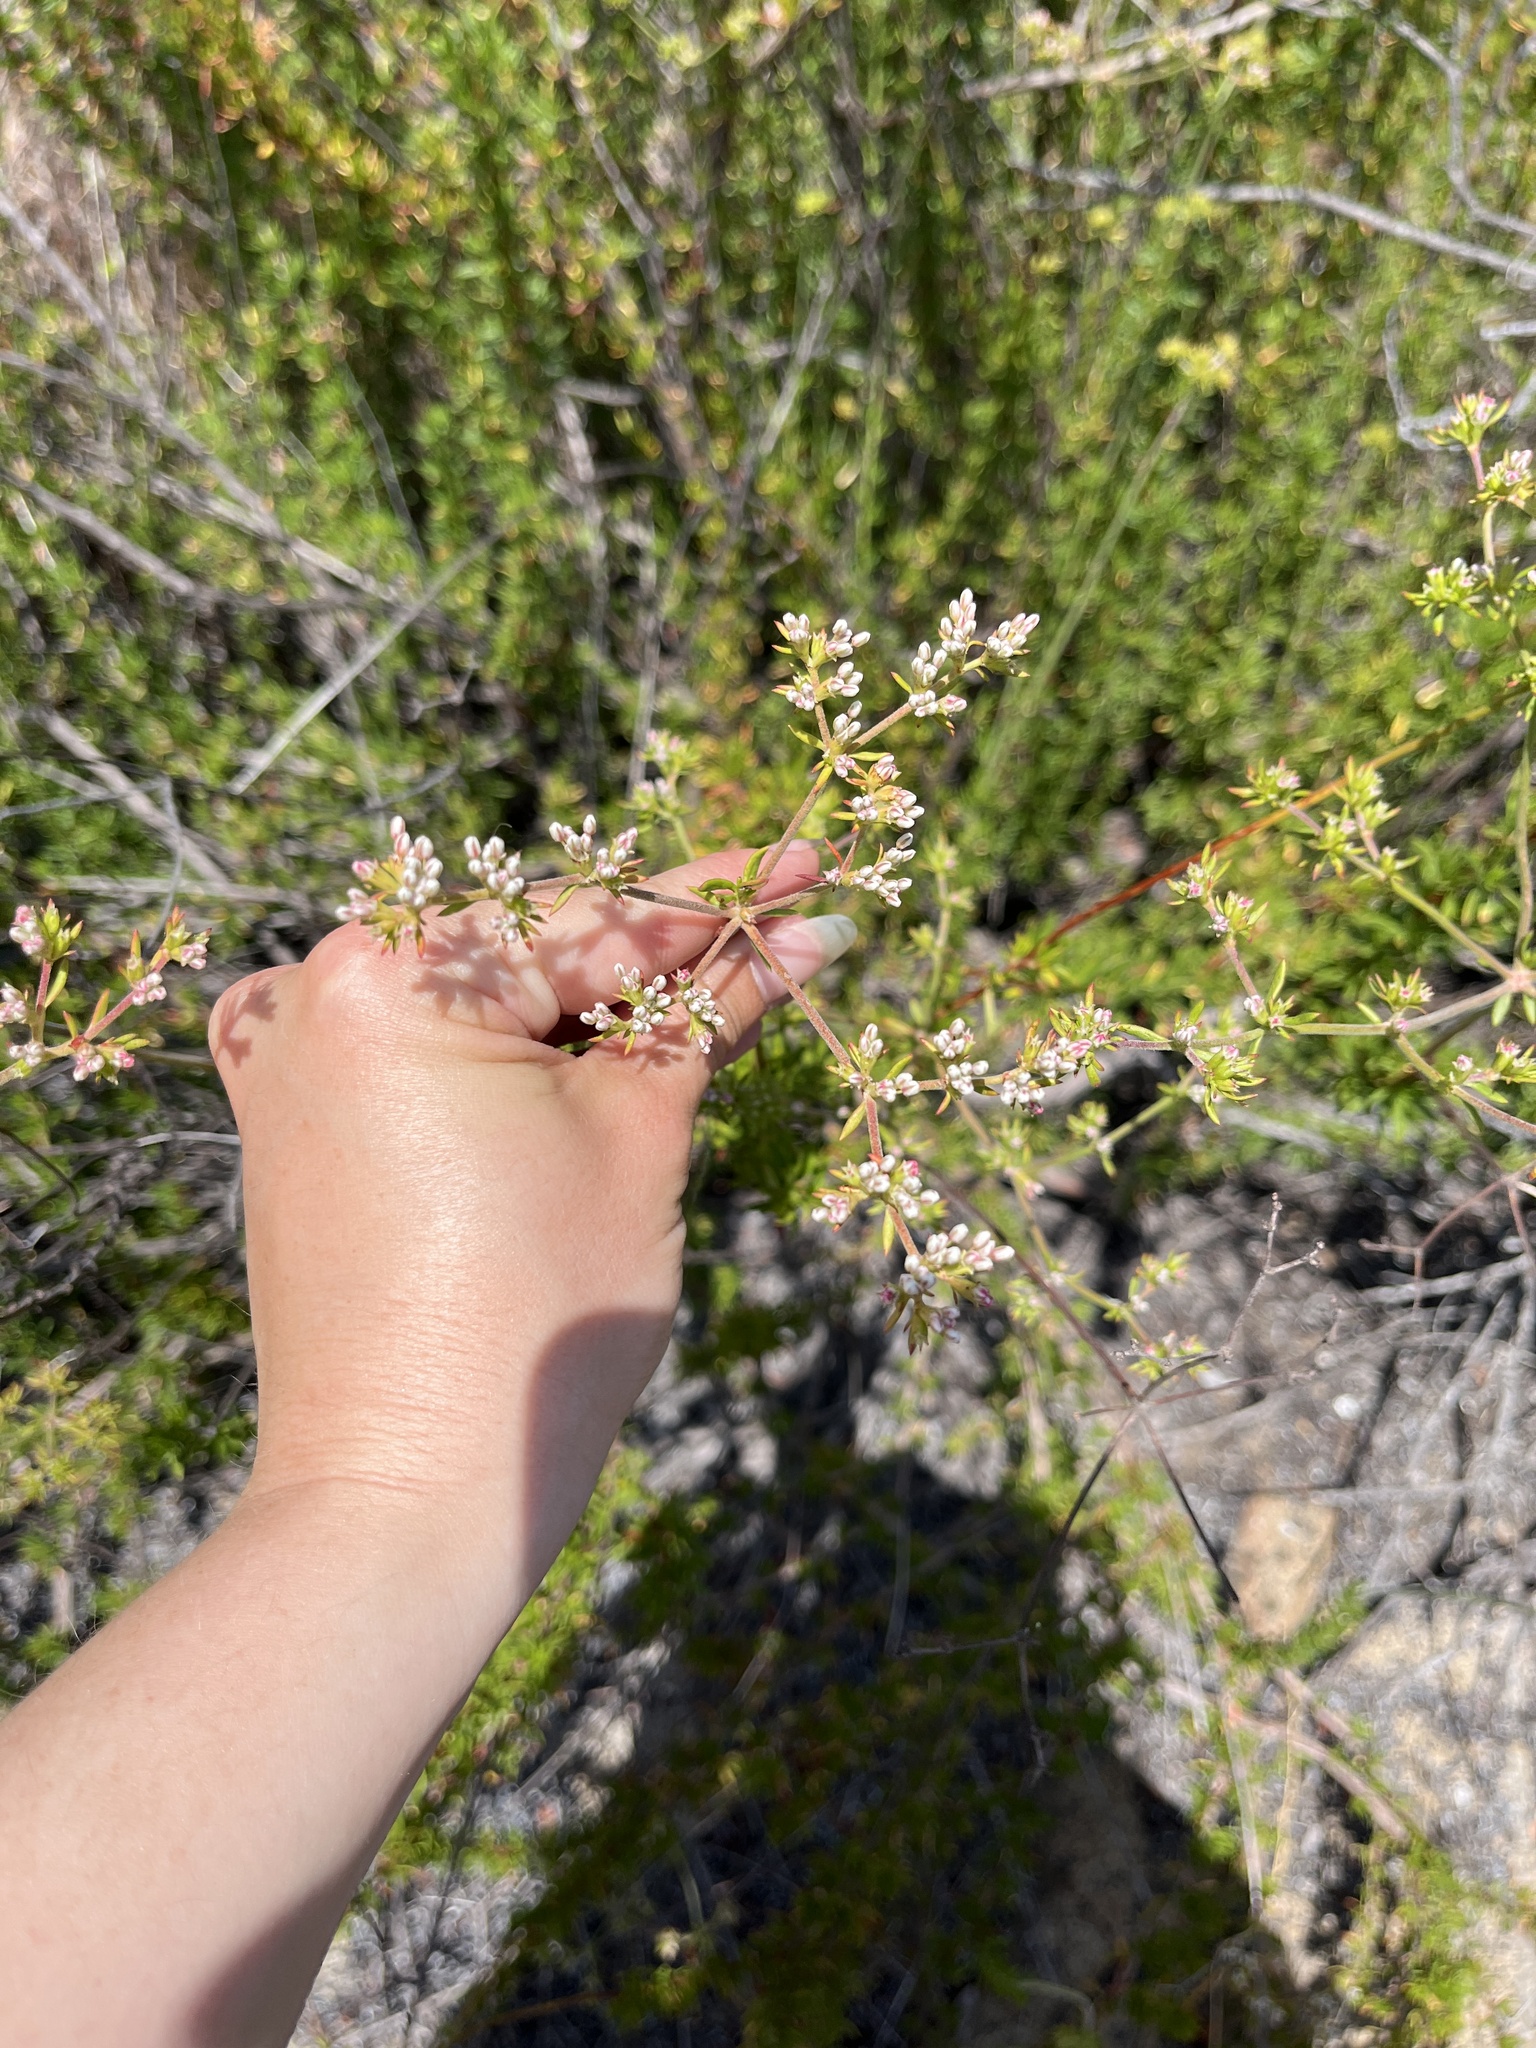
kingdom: Plantae
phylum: Tracheophyta
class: Magnoliopsida
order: Caryophyllales
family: Polygonaceae
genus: Eriogonum
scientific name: Eriogonum fasciculatum
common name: California wild buckwheat
